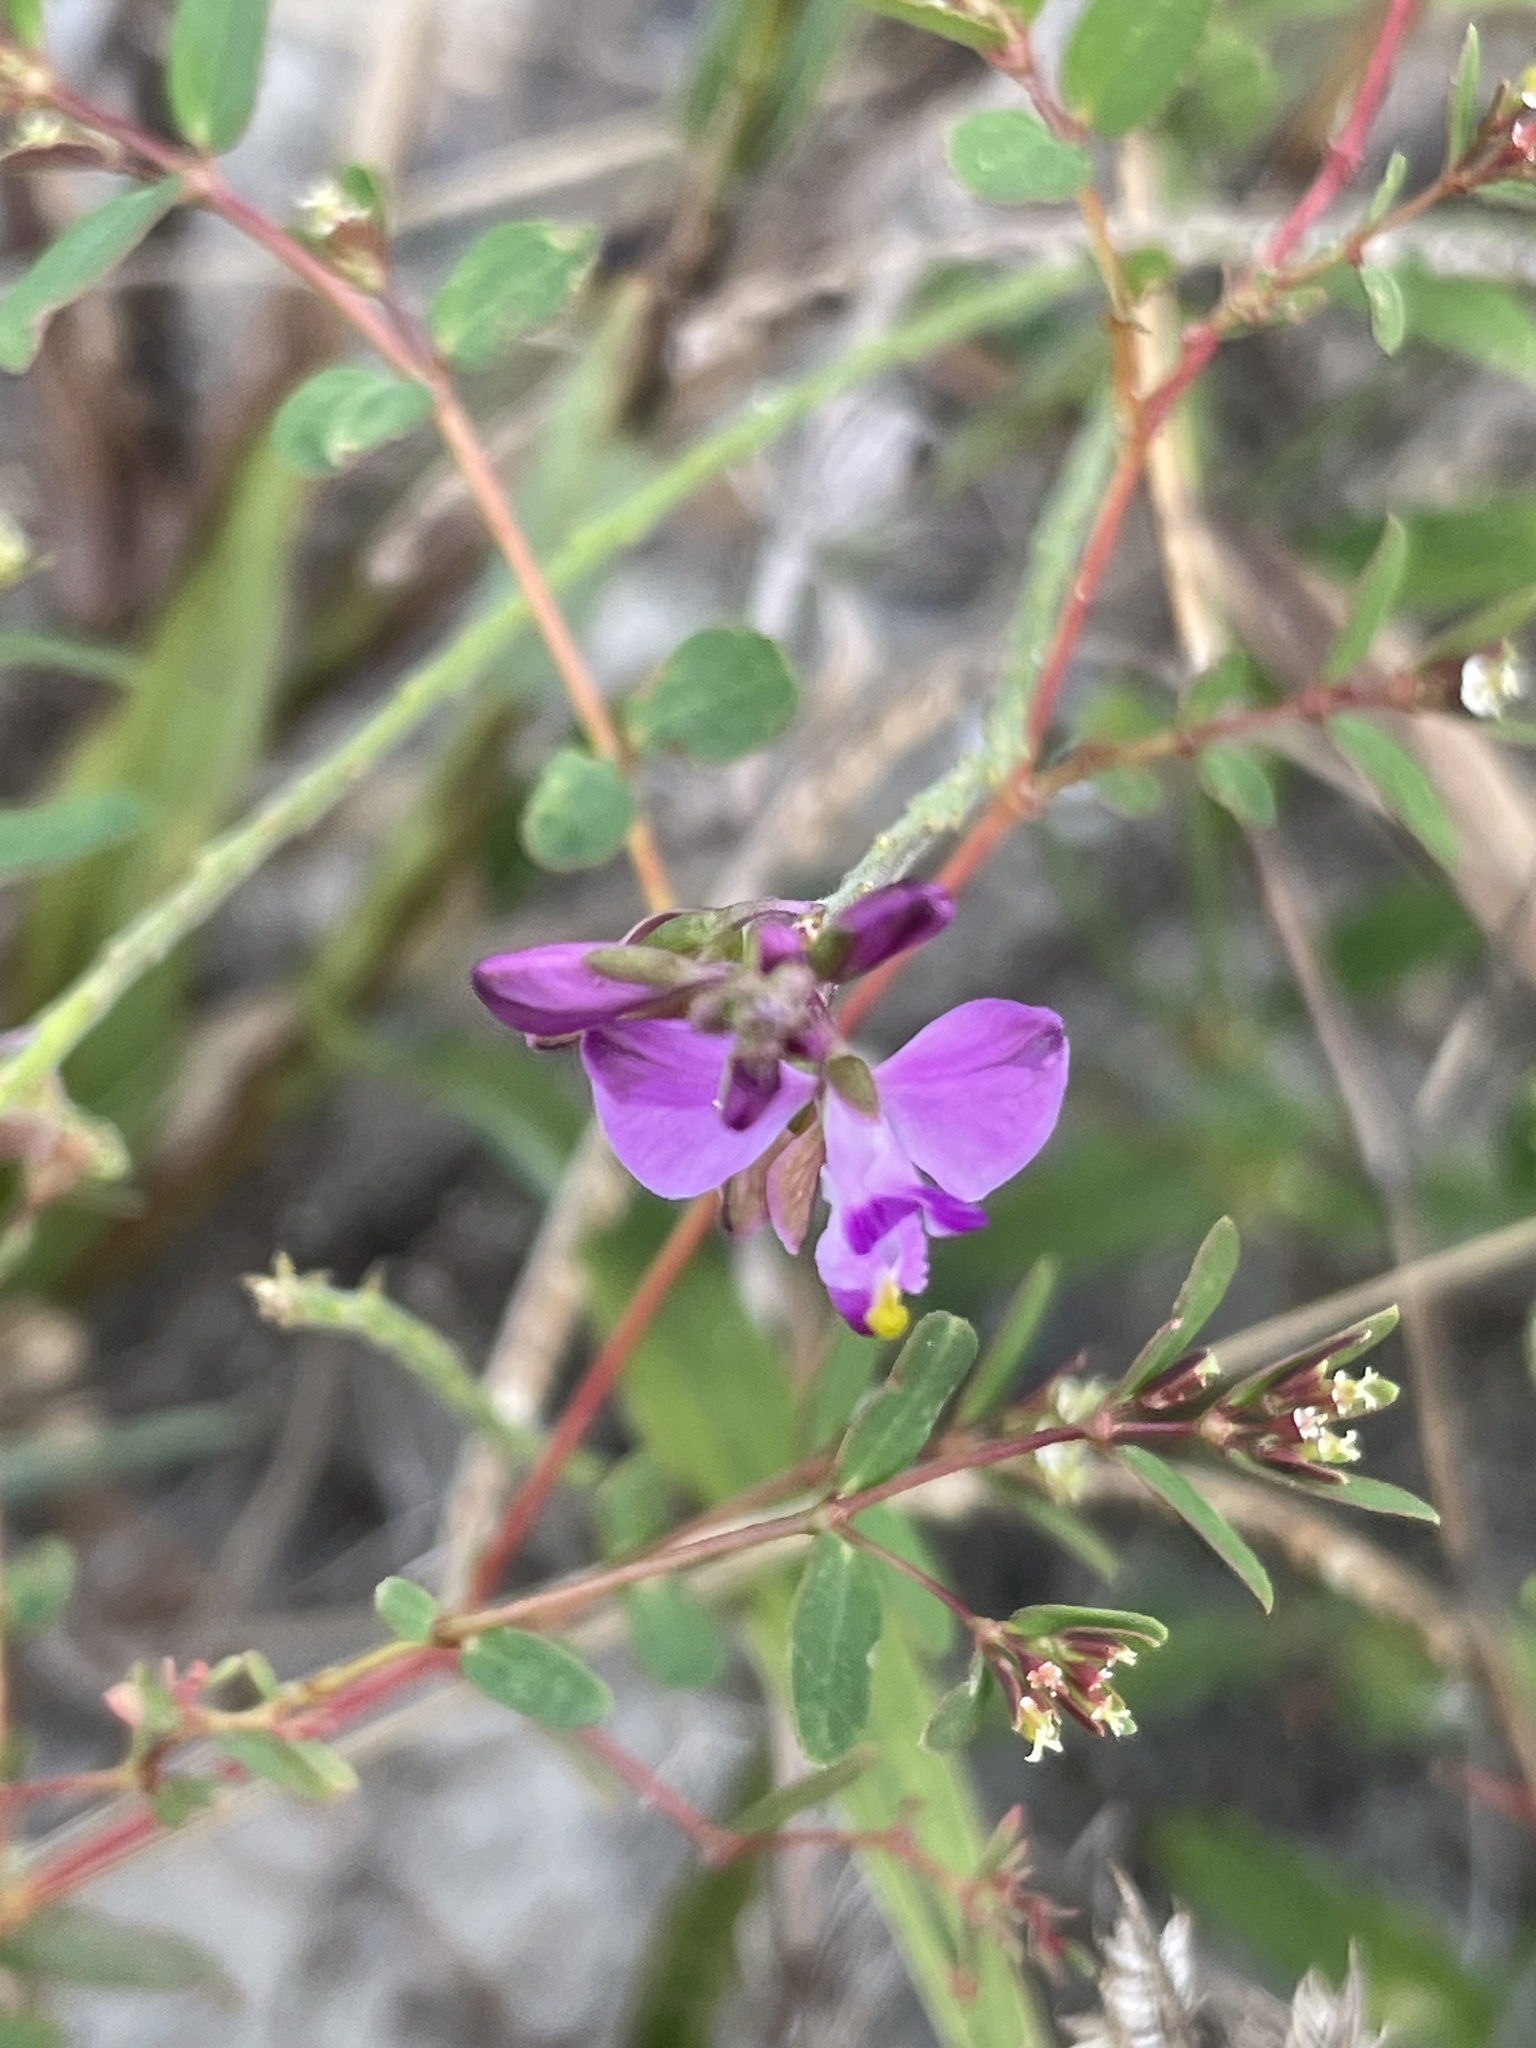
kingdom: Plantae
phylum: Tracheophyta
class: Magnoliopsida
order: Fabales
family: Polygalaceae
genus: Asemeia
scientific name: Asemeia grandiflora
